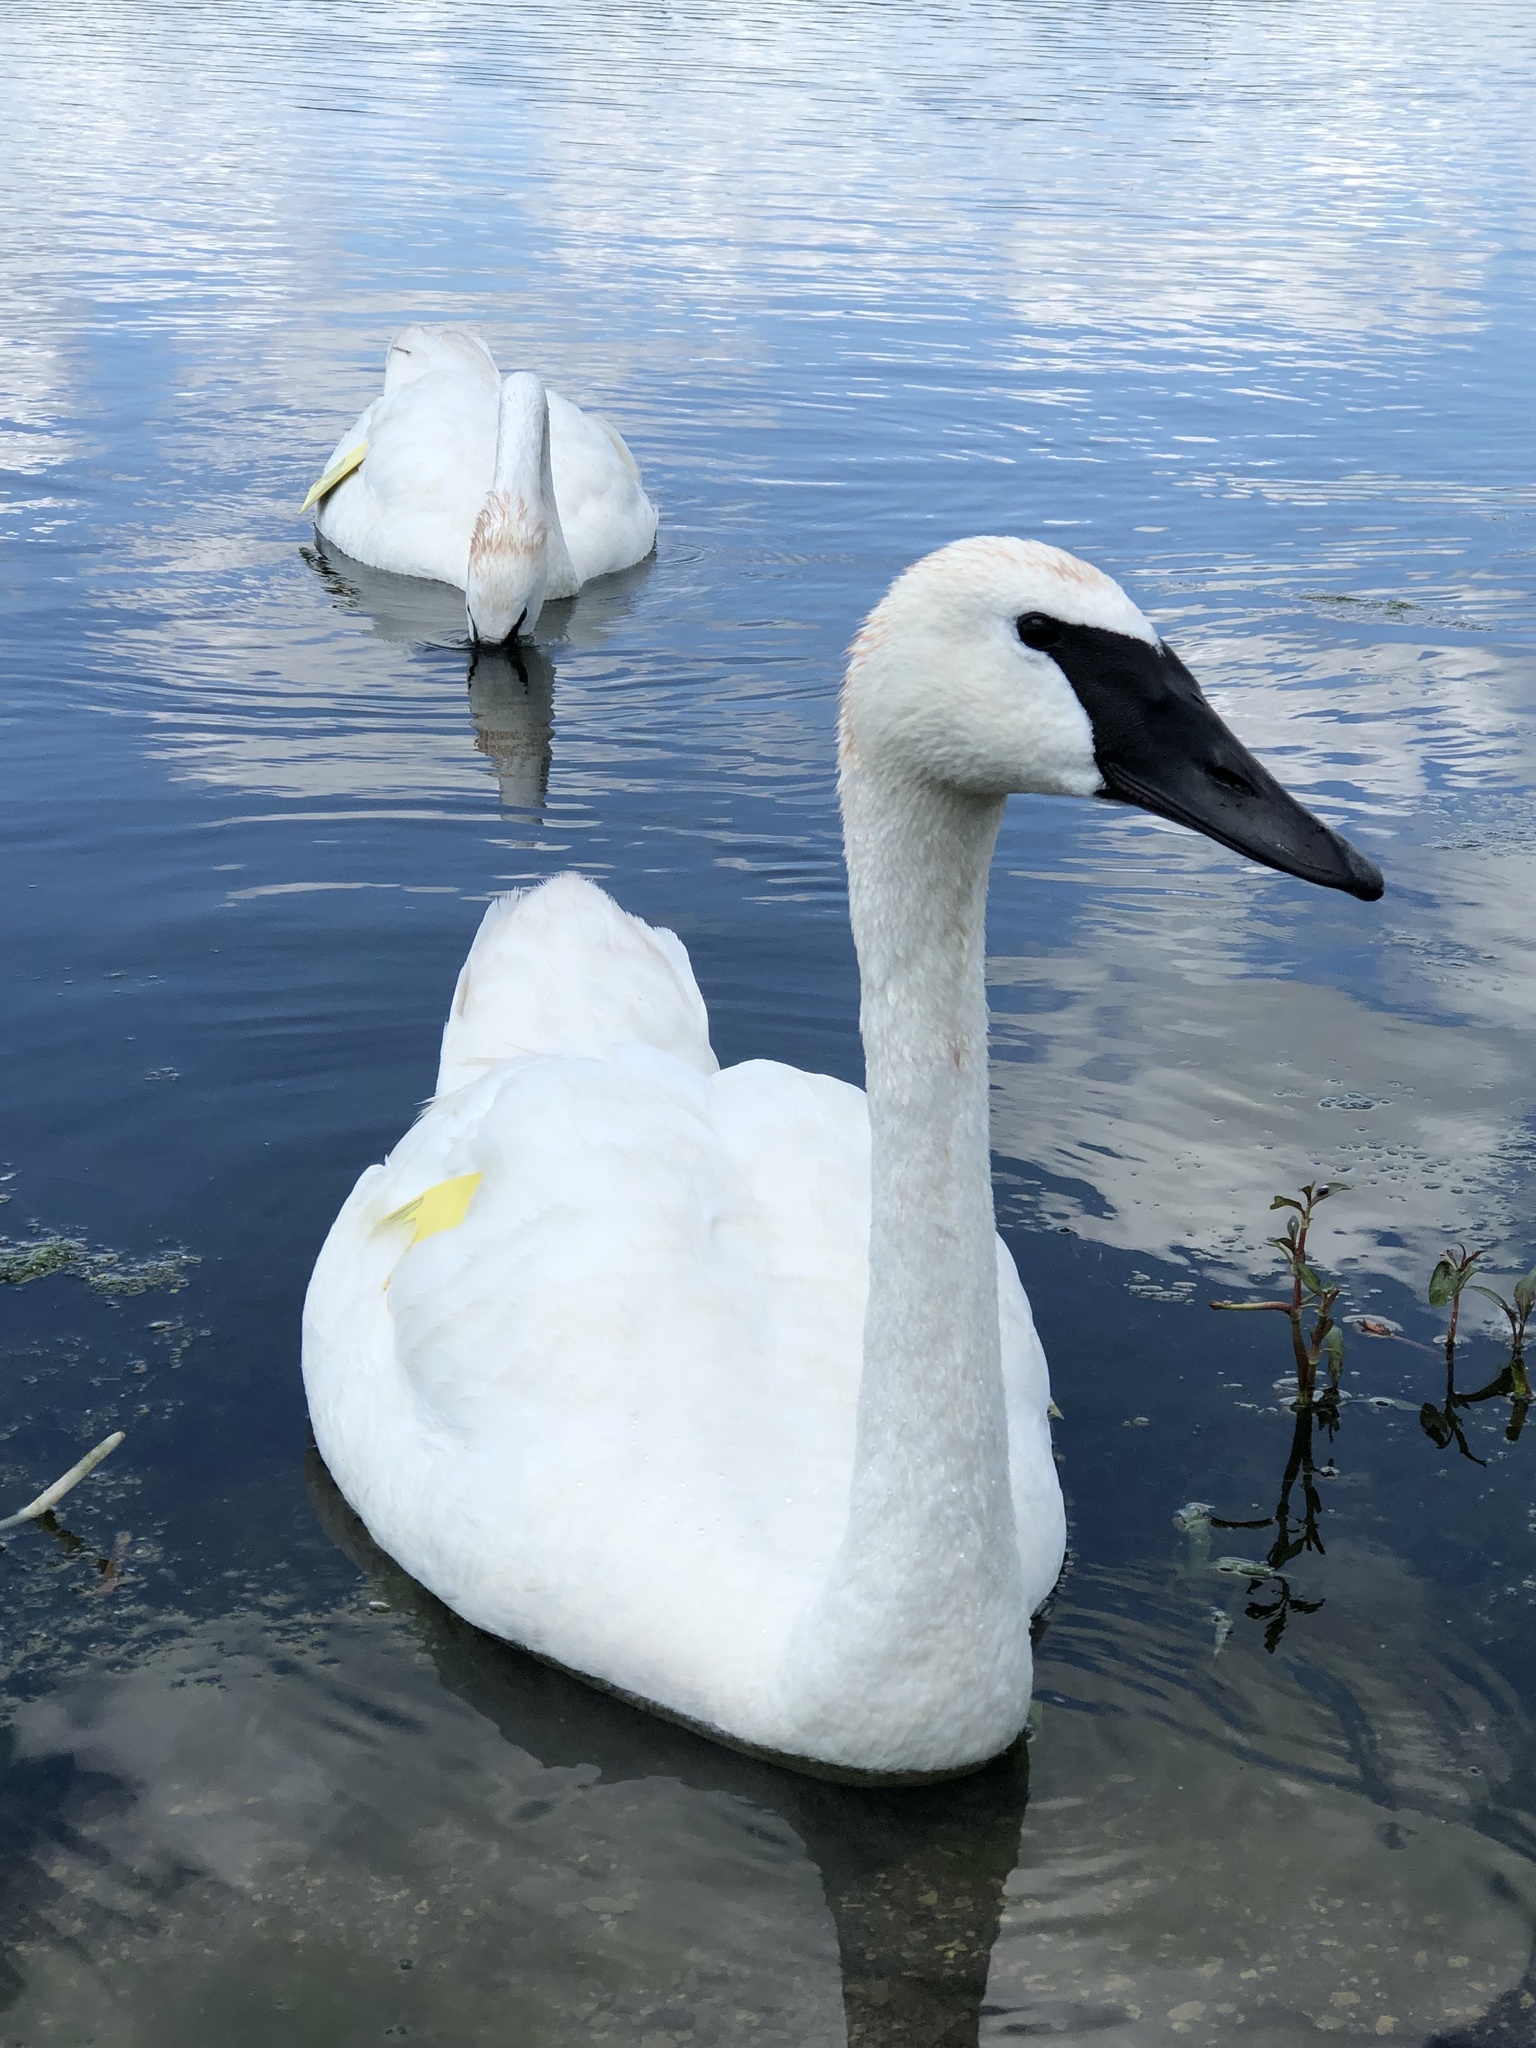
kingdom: Animalia
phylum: Chordata
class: Aves
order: Anseriformes
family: Anatidae
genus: Cygnus
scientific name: Cygnus buccinator
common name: Trumpeter swan
